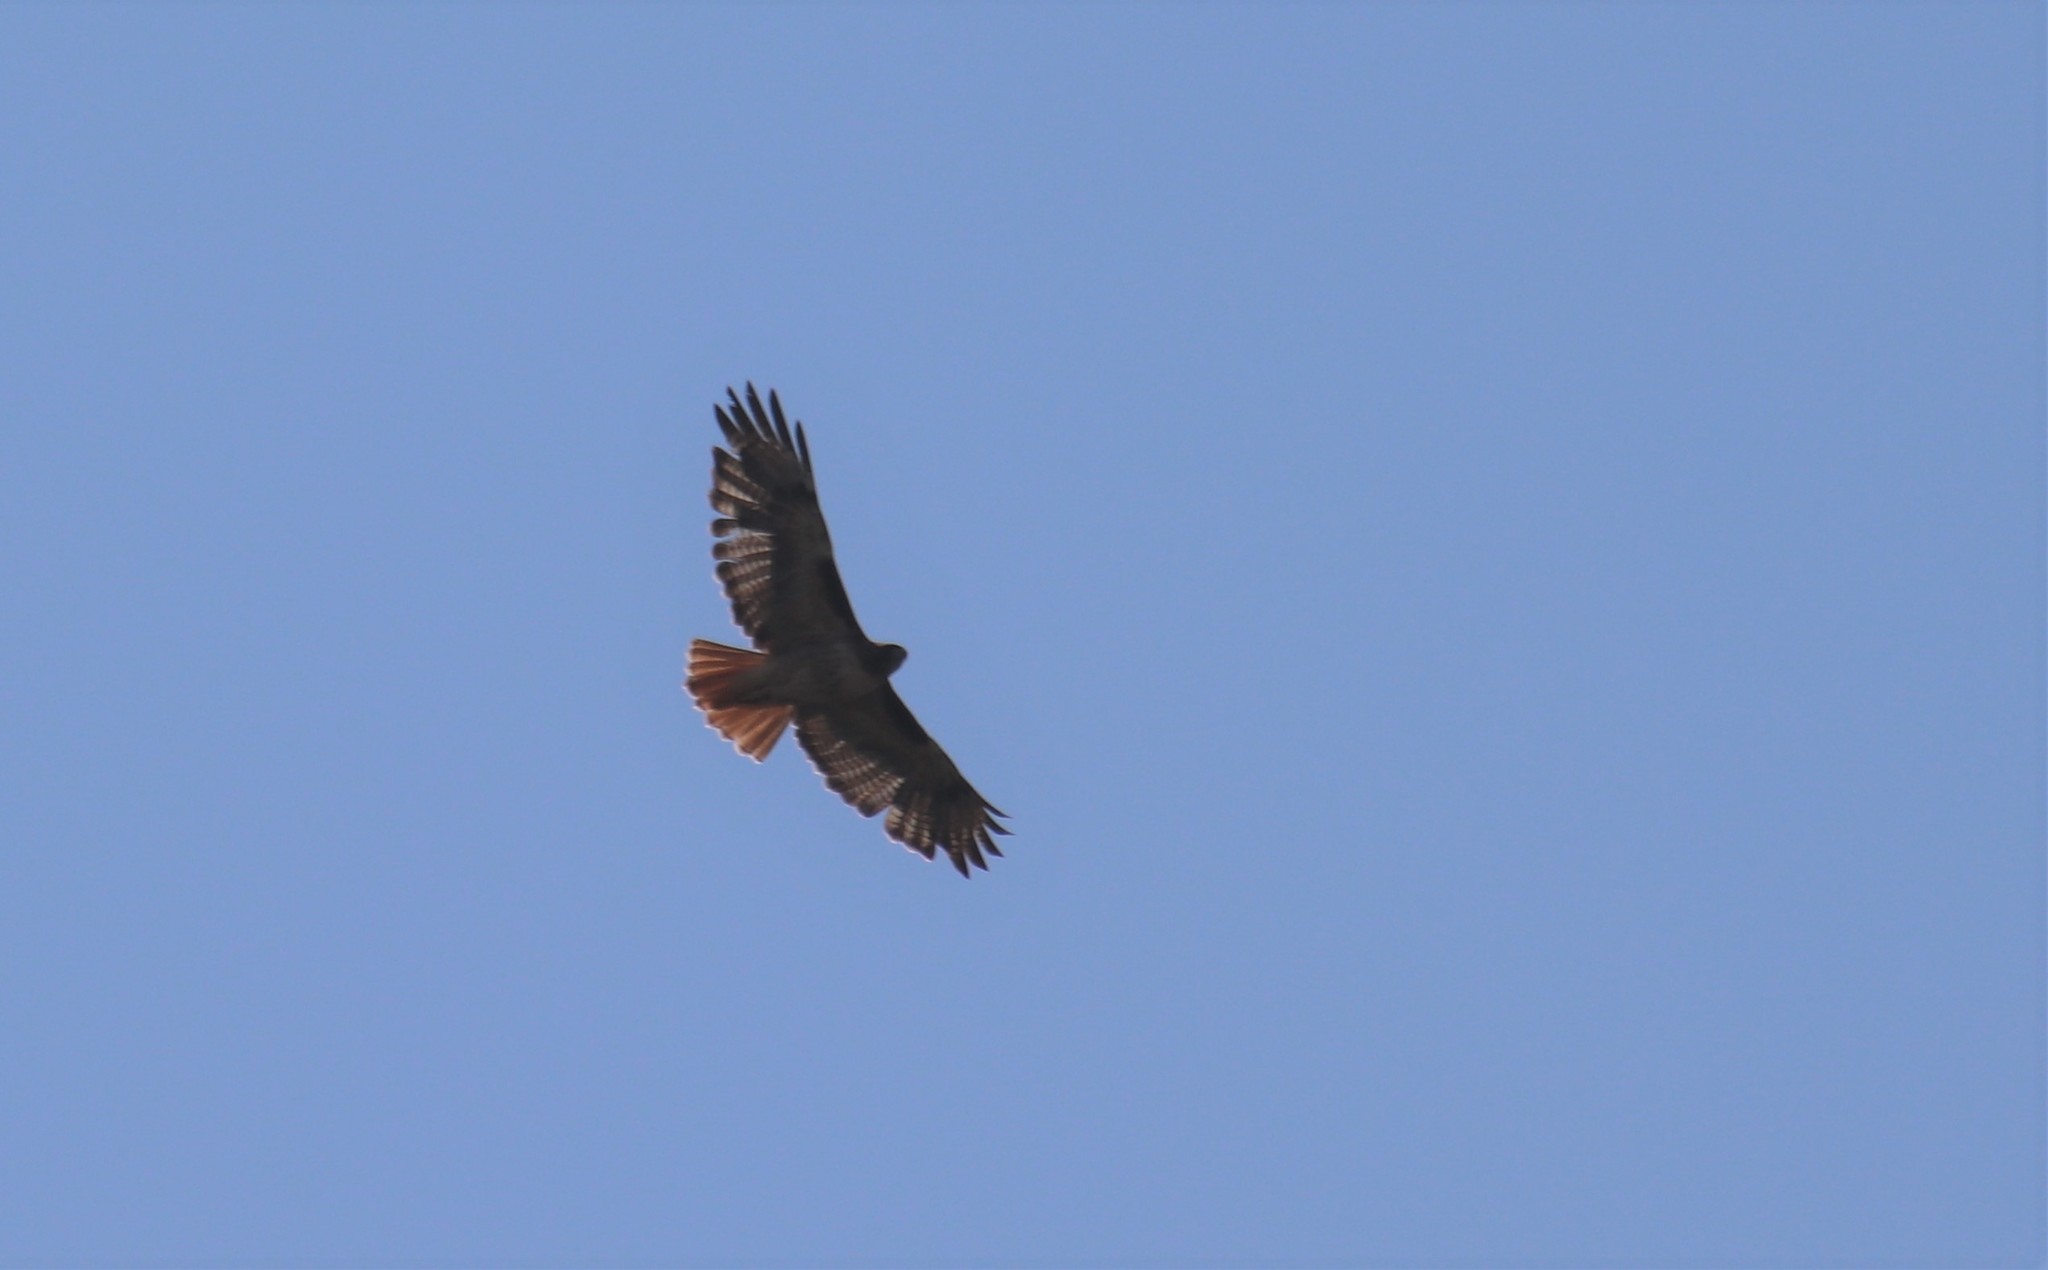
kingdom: Animalia
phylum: Chordata
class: Aves
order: Accipitriformes
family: Accipitridae
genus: Buteo
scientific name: Buteo jamaicensis
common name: Red-tailed hawk
